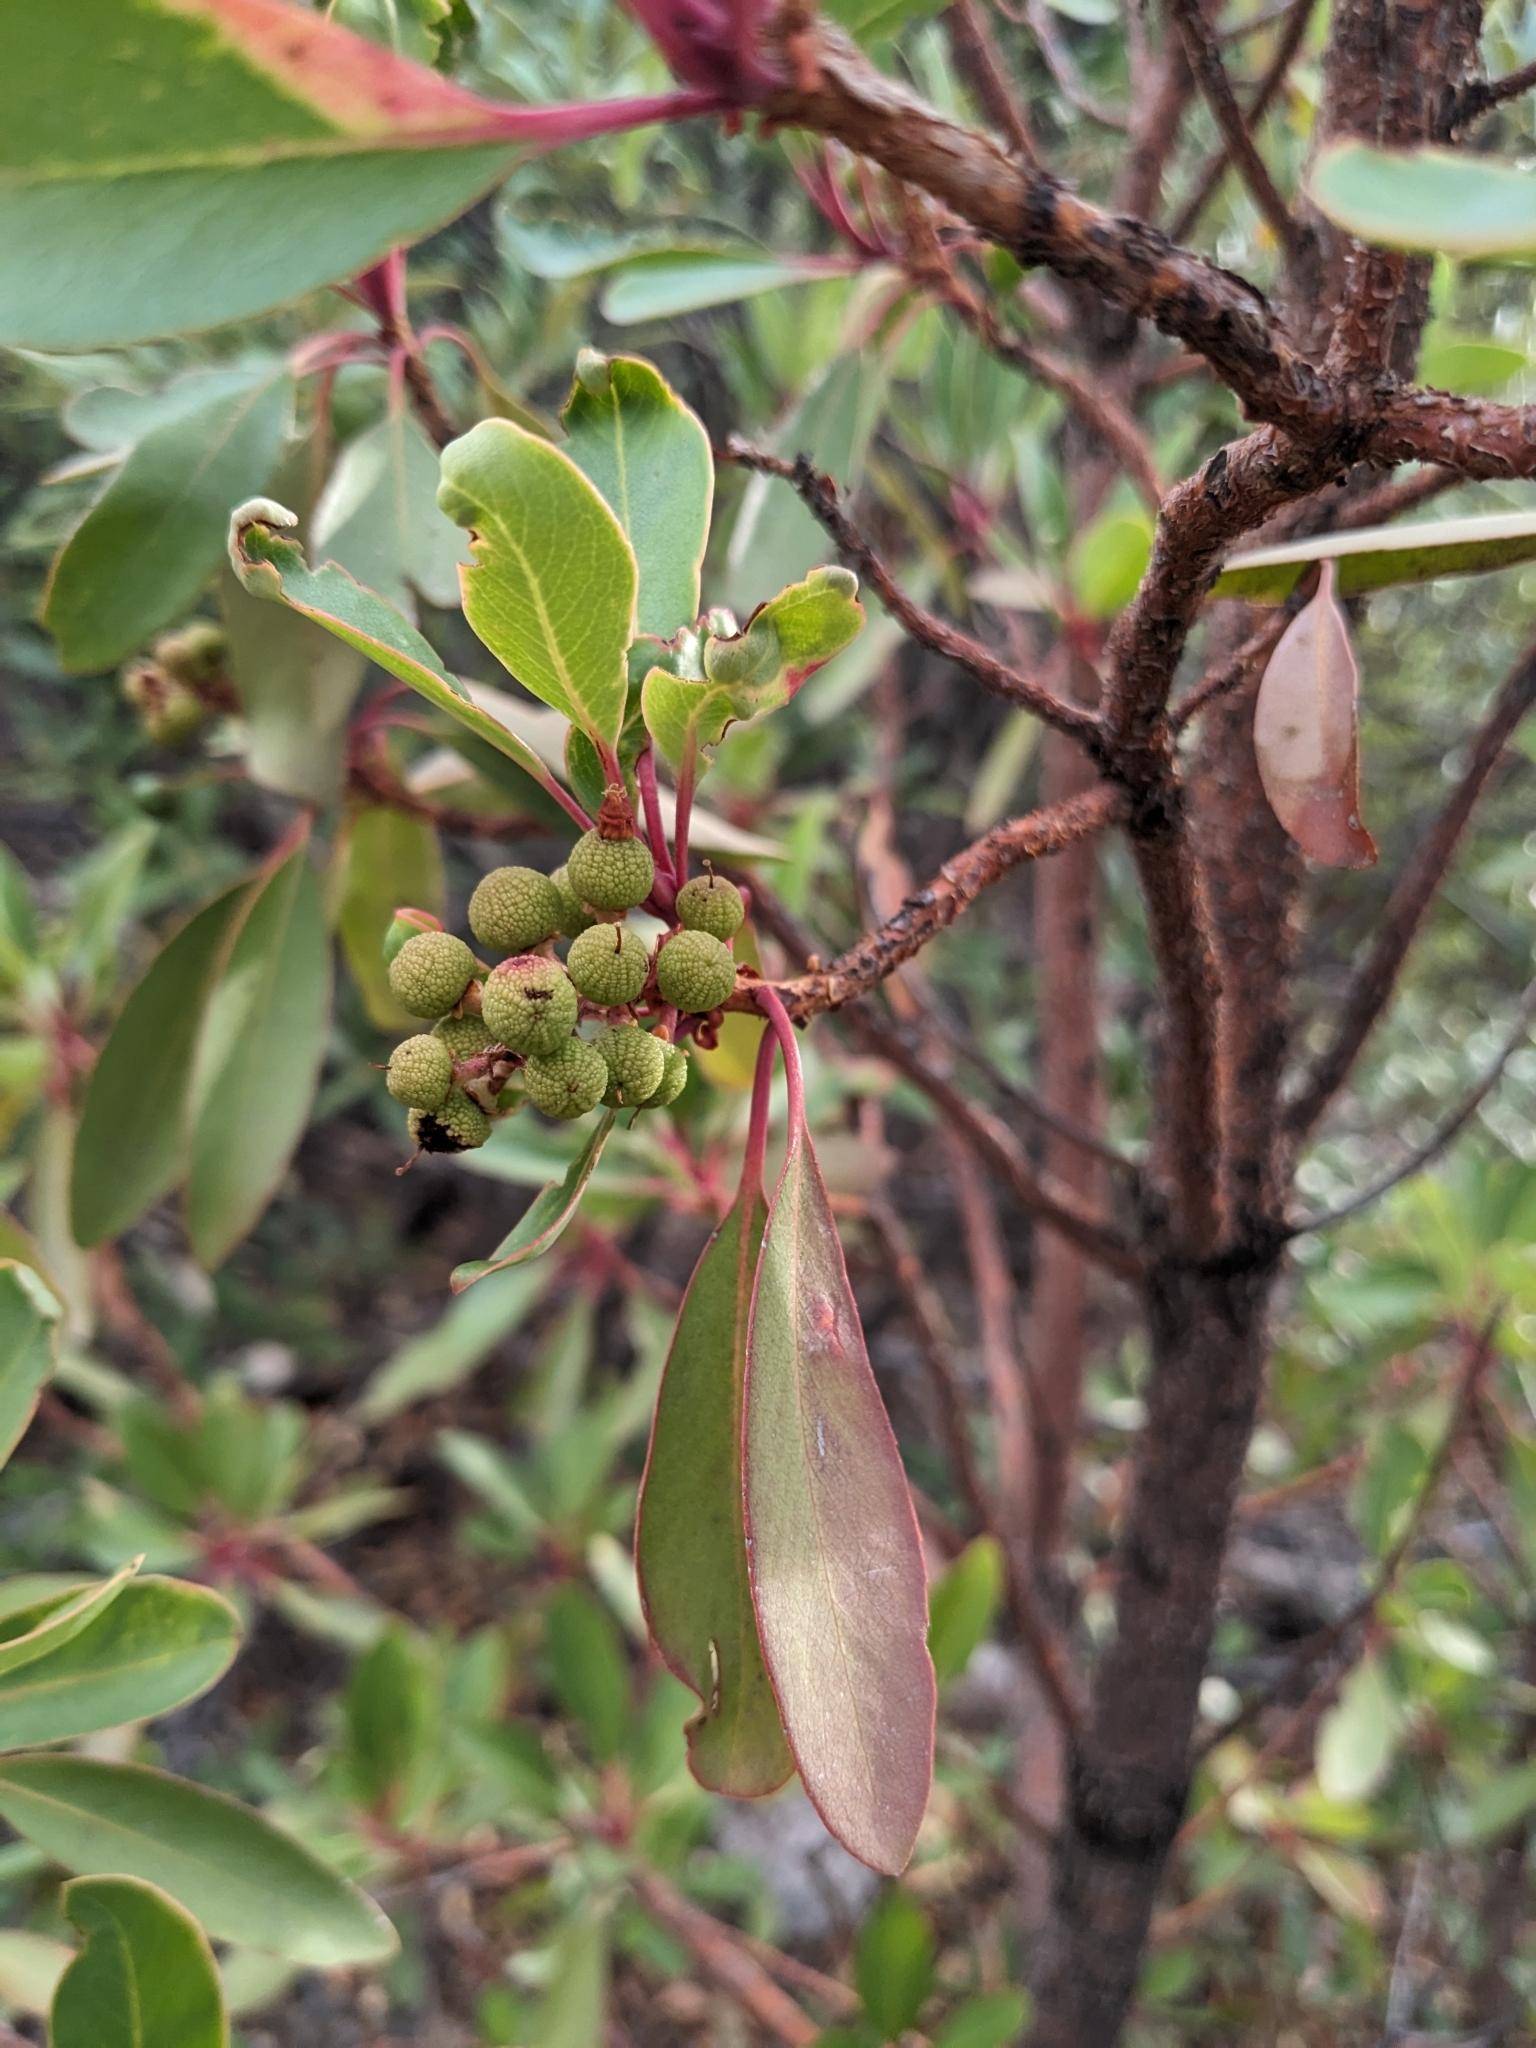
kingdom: Plantae
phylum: Tracheophyta
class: Magnoliopsida
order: Ericales
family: Ericaceae
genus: Arbutus
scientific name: Arbutus arizonica
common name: Arizona madrone
